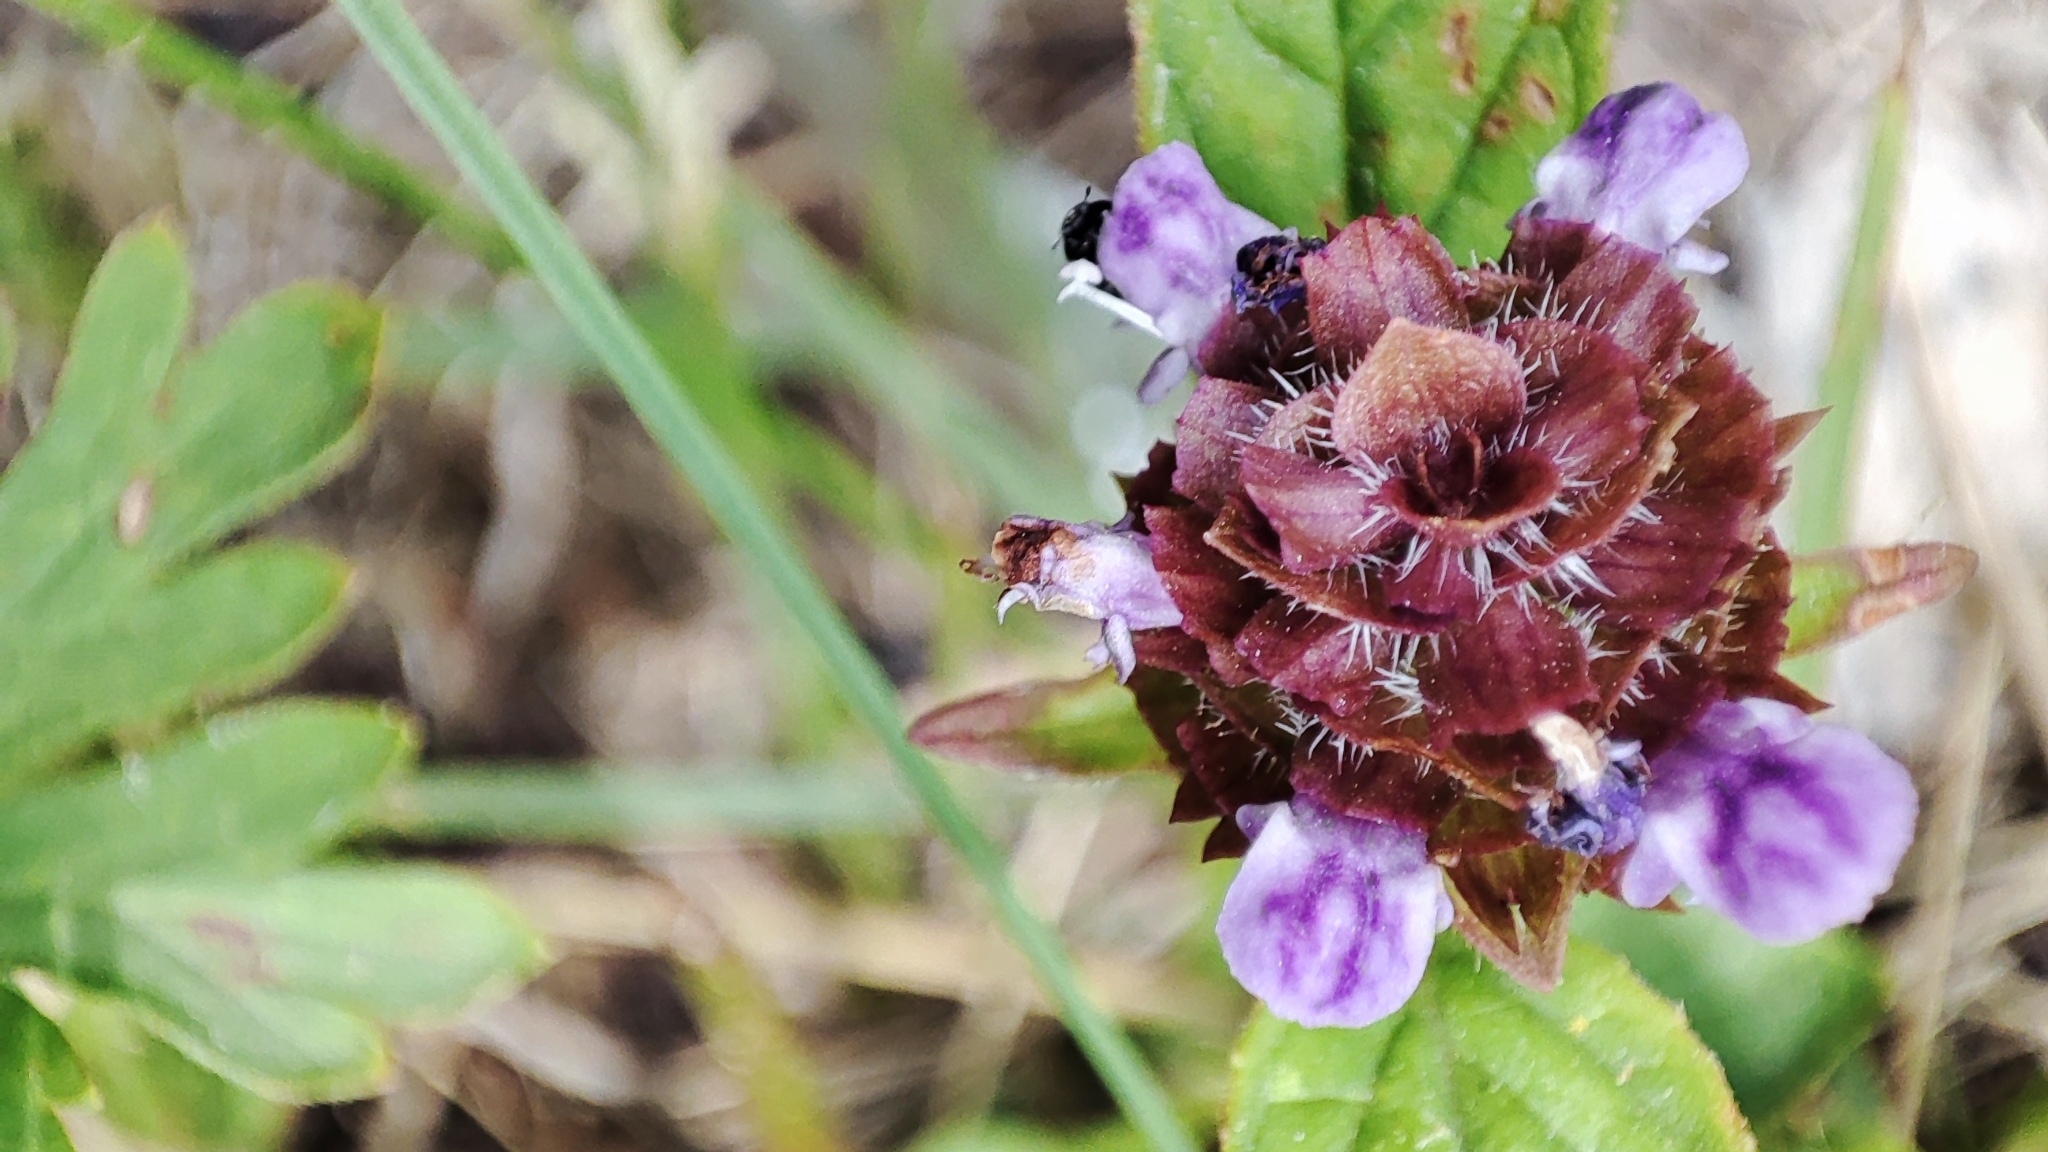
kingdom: Plantae
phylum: Tracheophyta
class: Magnoliopsida
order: Lamiales
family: Lamiaceae
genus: Prunella
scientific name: Prunella vulgaris
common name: Heal-all
